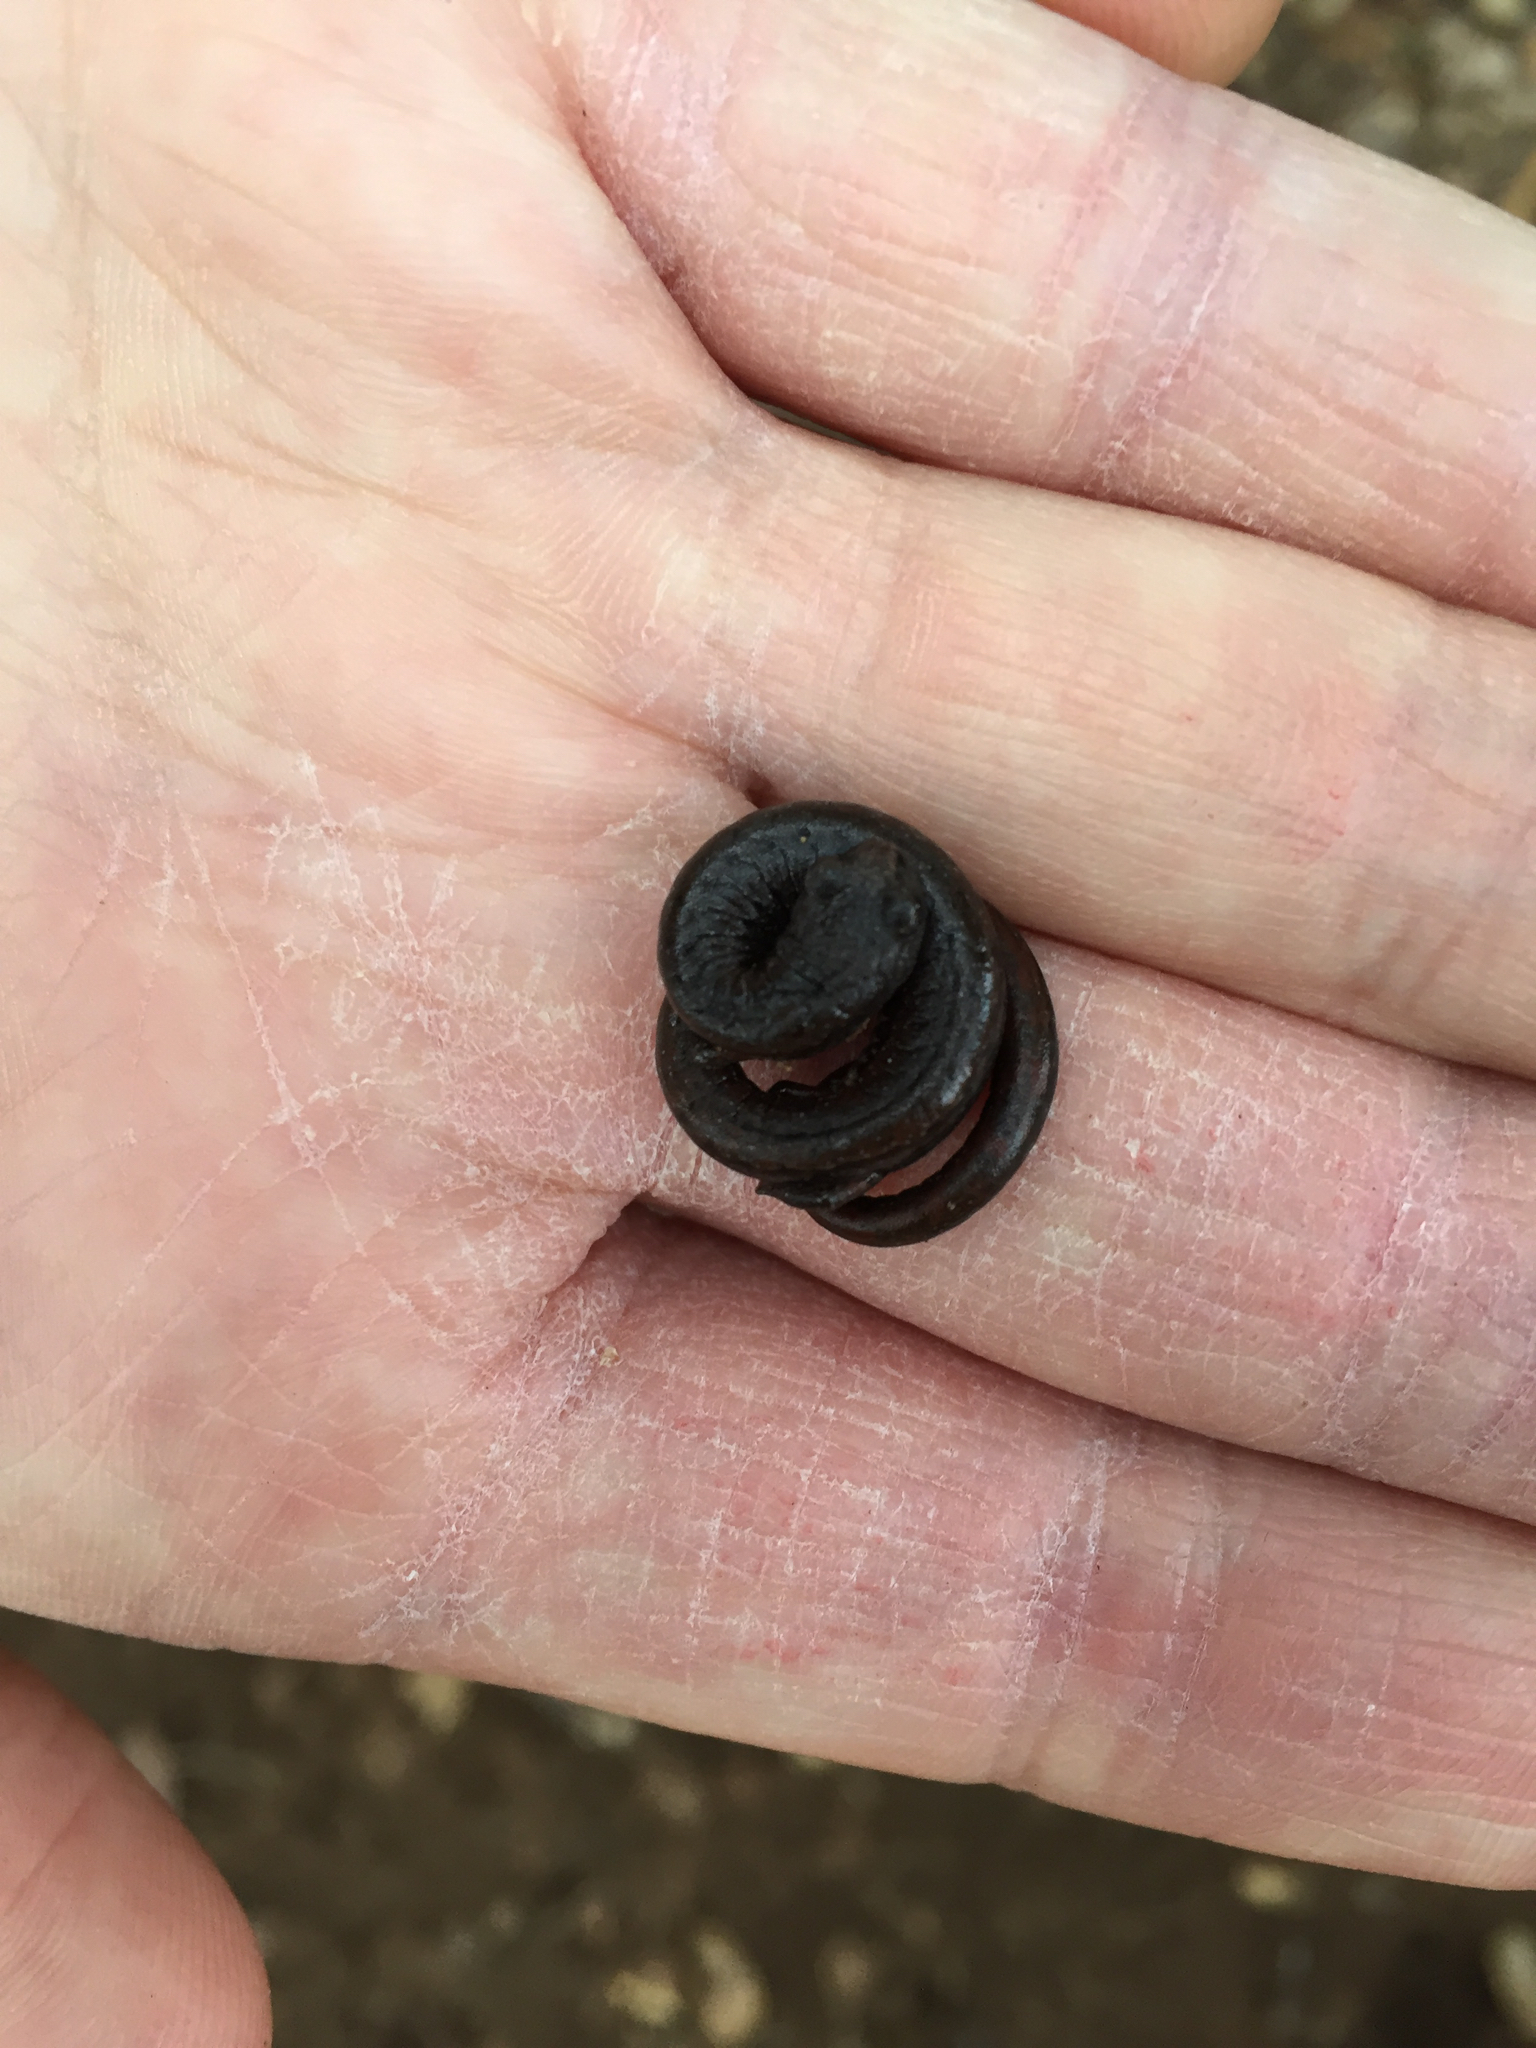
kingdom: Animalia
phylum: Chordata
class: Amphibia
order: Caudata
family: Plethodontidae
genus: Batrachoseps
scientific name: Batrachoseps attenuatus
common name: California slender salamander
